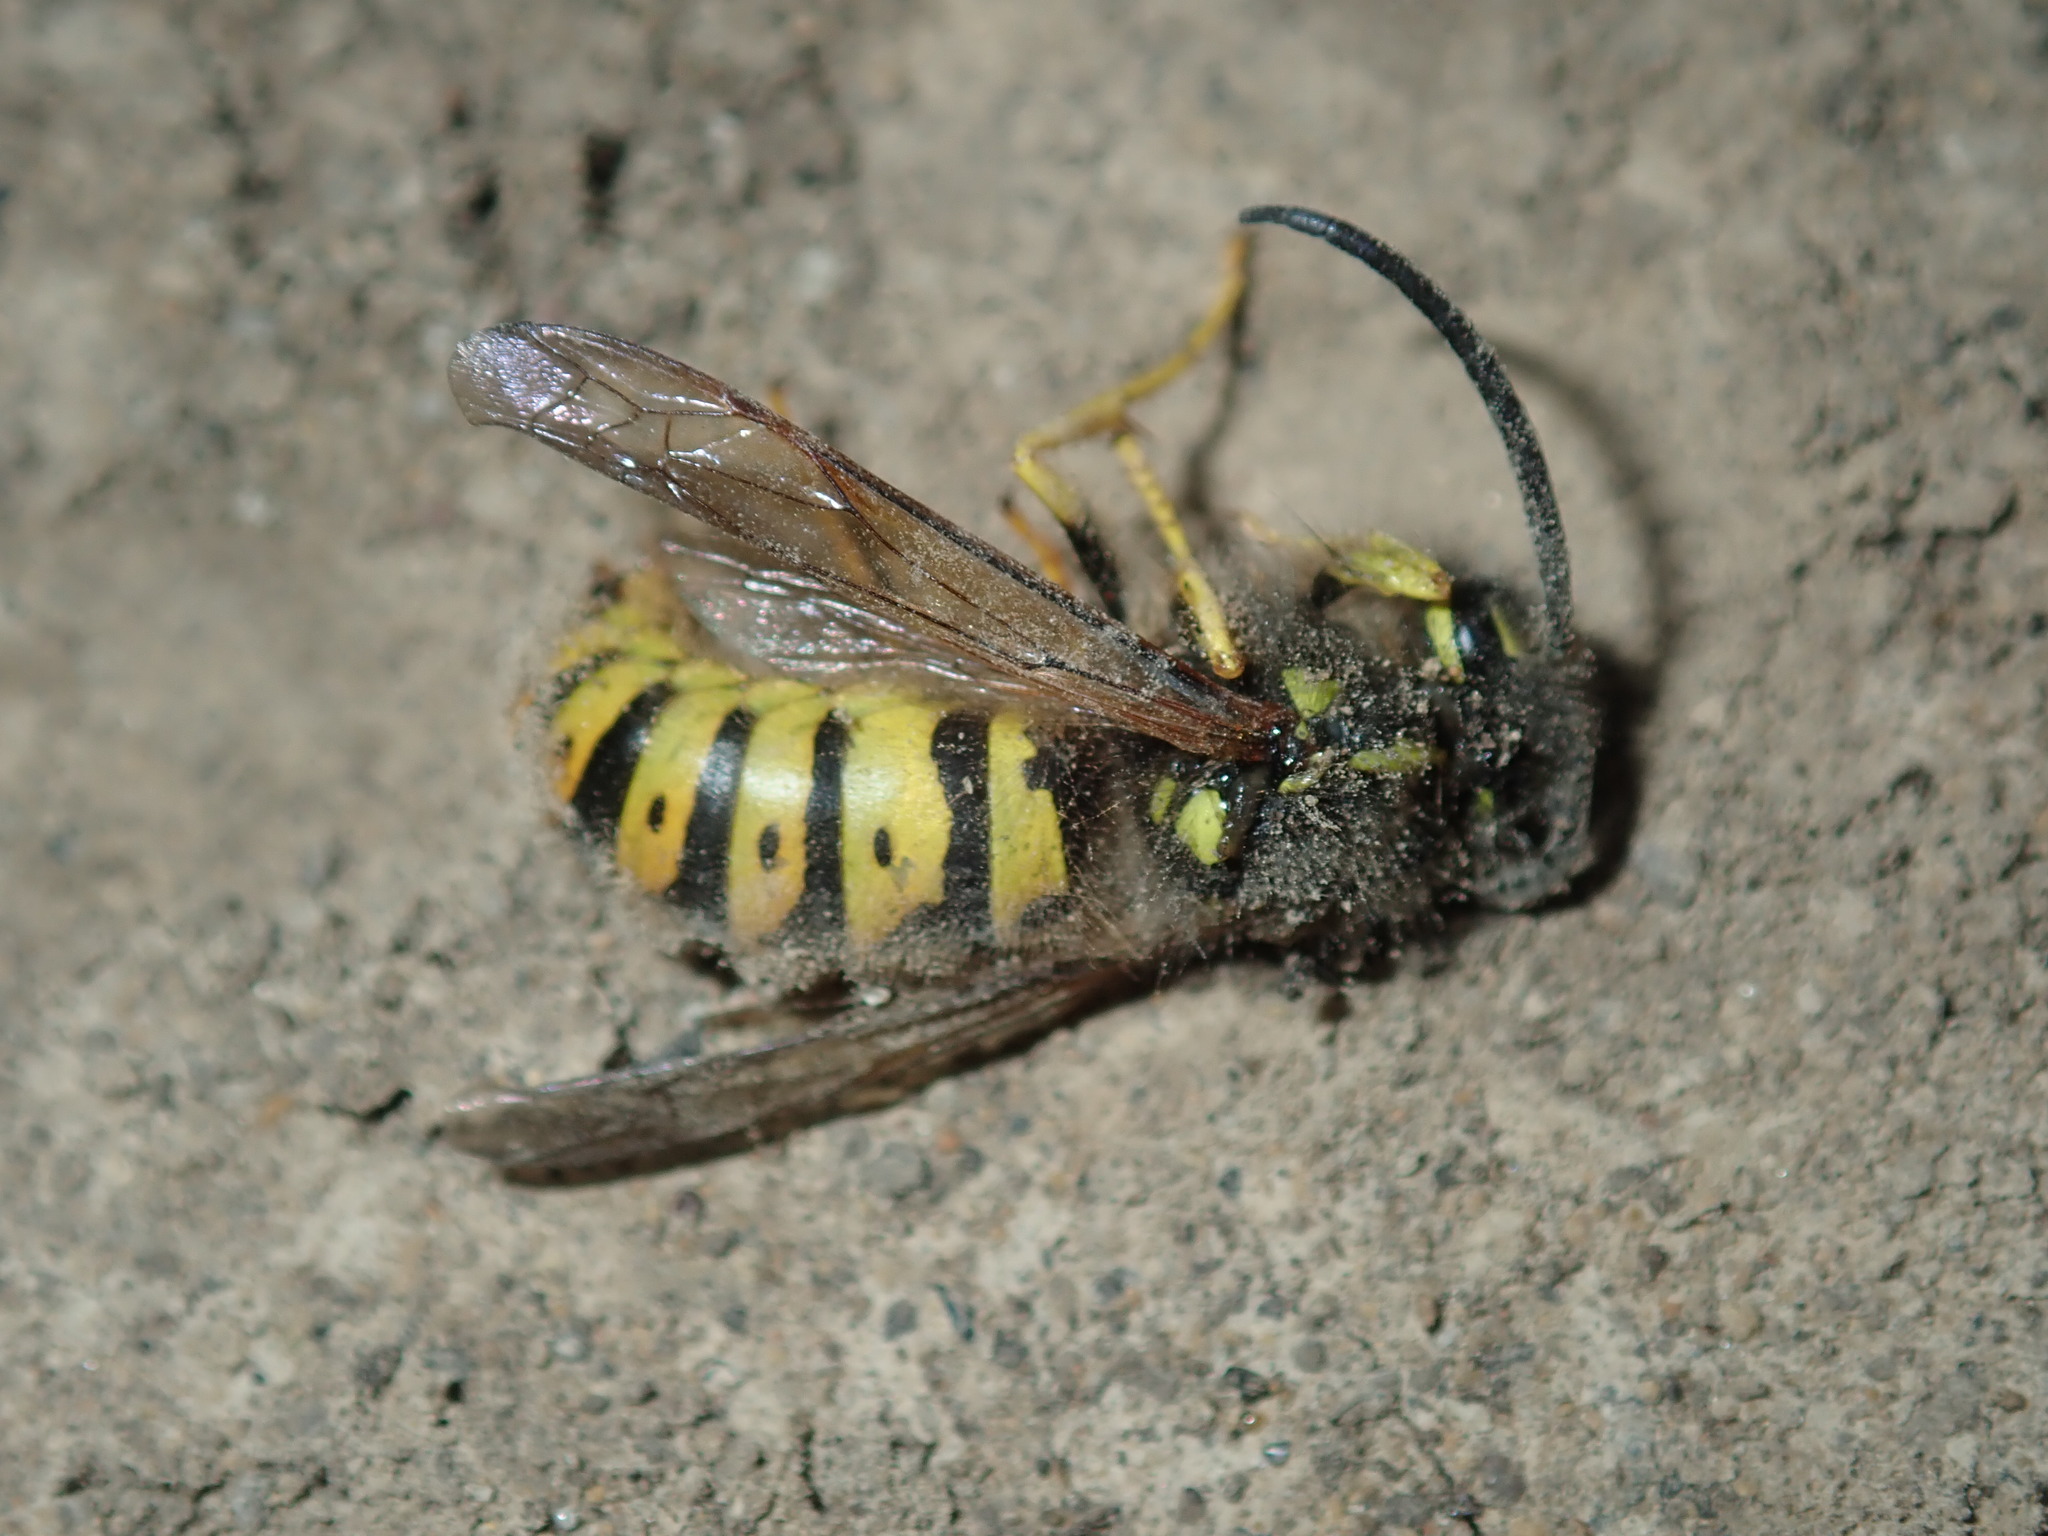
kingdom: Animalia
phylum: Arthropoda
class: Insecta
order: Hymenoptera
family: Vespidae
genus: Vespula
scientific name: Vespula germanica
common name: German wasp
